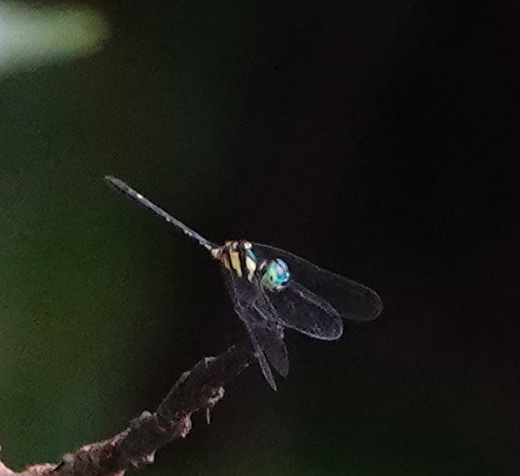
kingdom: Animalia
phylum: Arthropoda
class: Insecta
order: Odonata
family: Libellulidae
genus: Tetrathemis
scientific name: Tetrathemis hyalina
